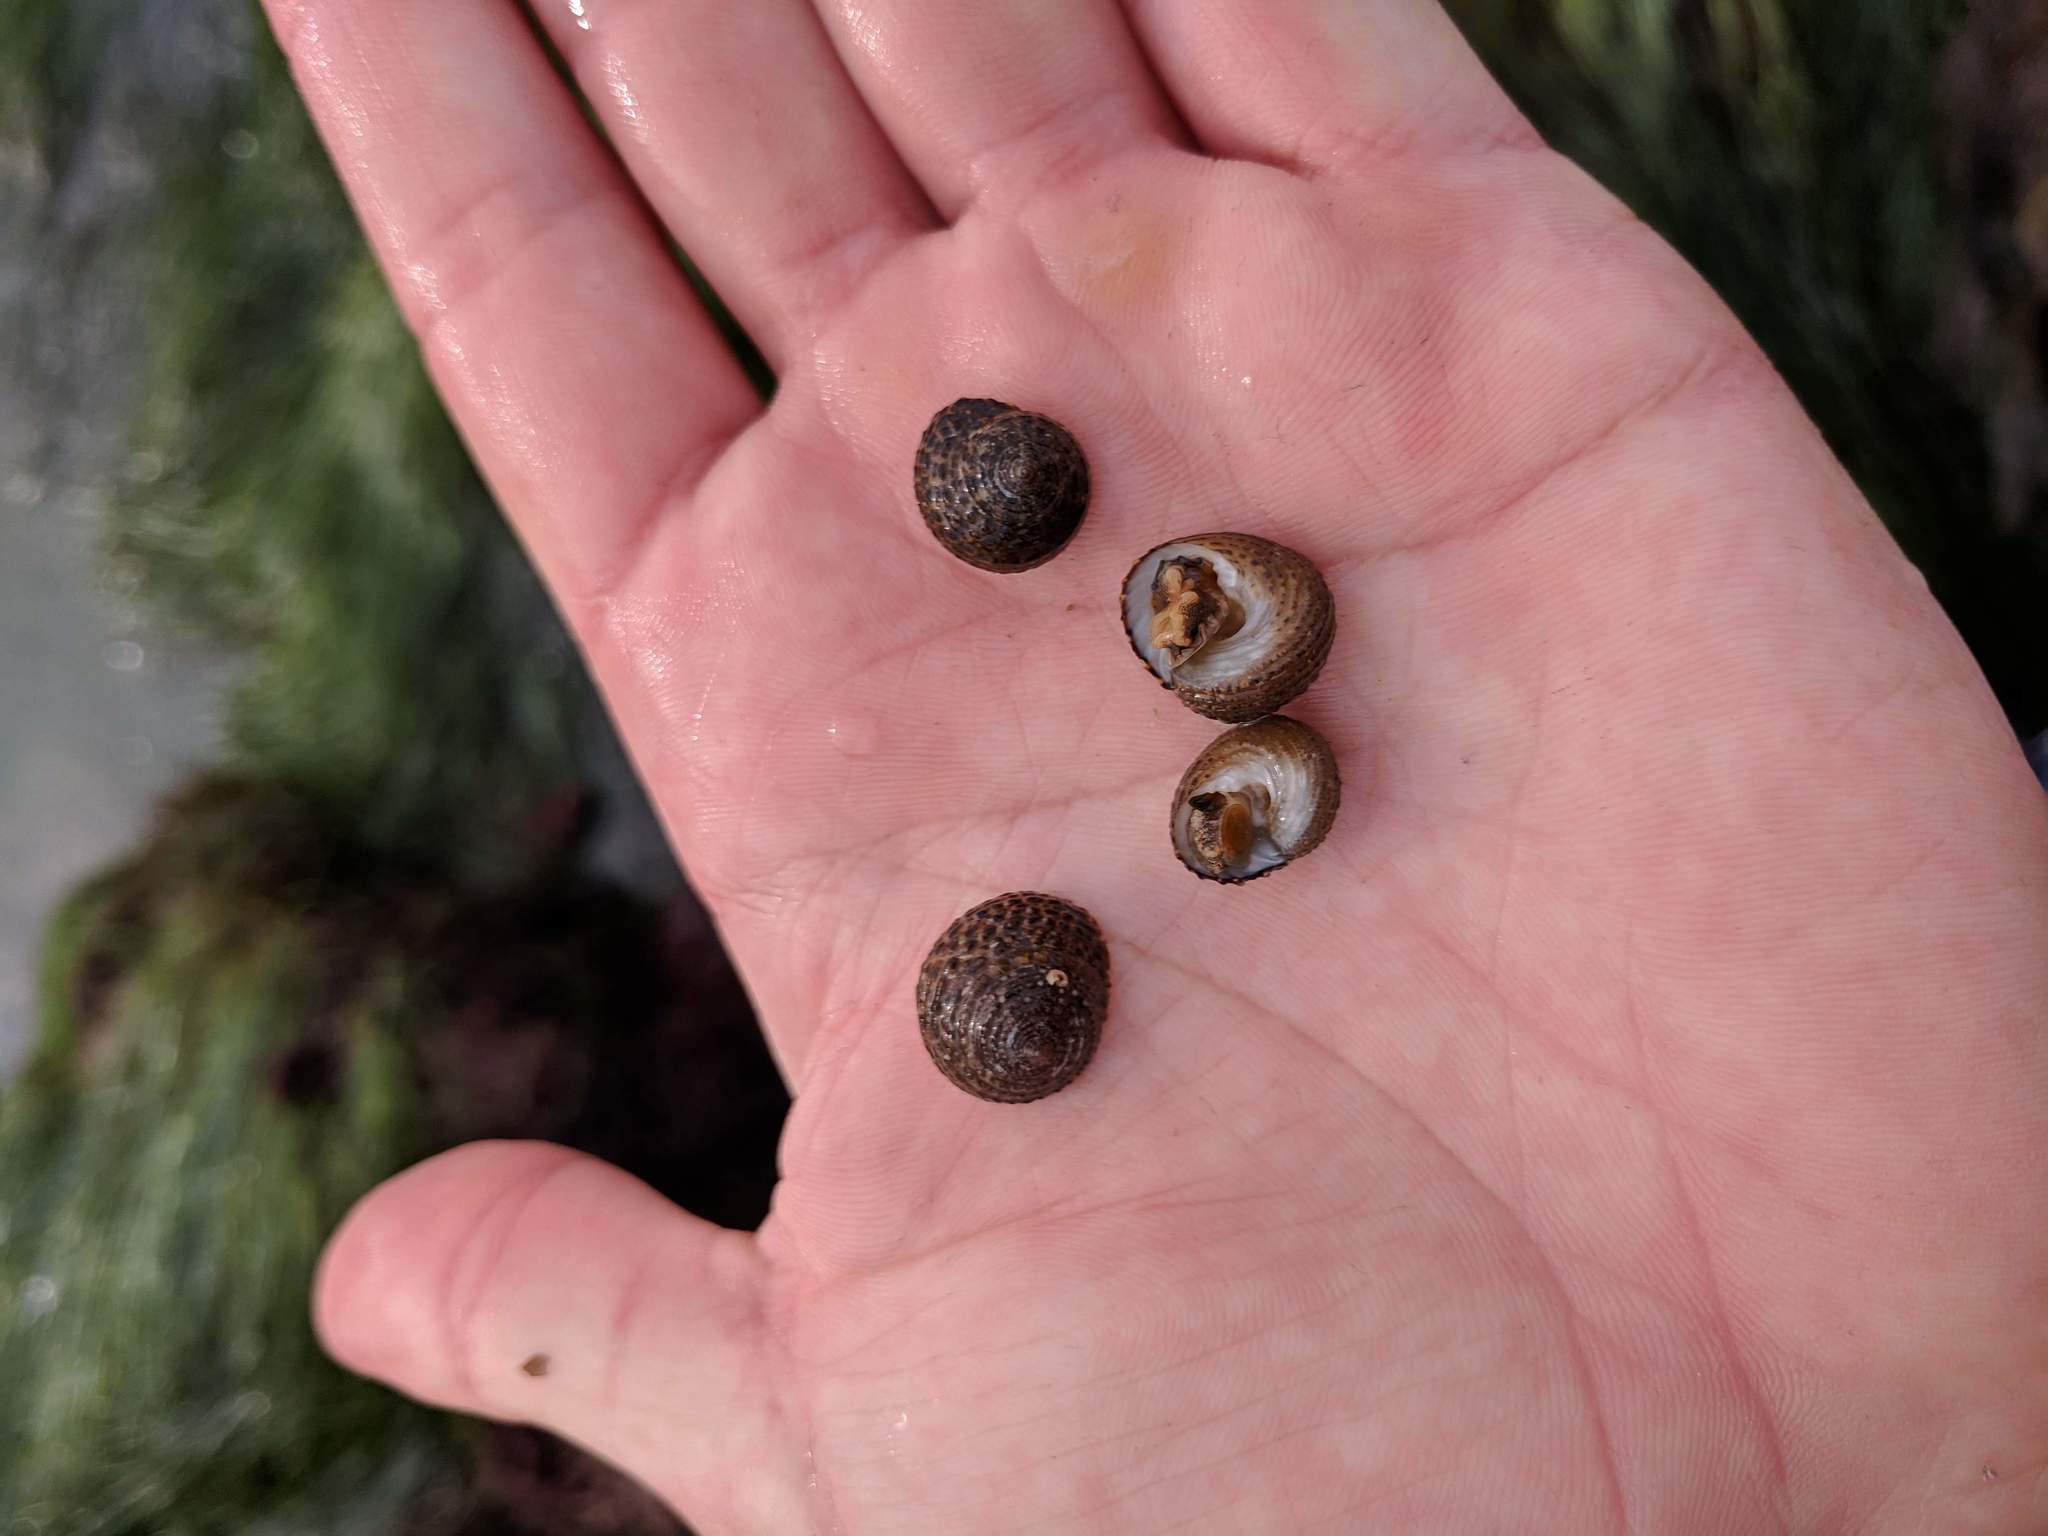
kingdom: Animalia
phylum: Mollusca
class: Gastropoda
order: Trochida
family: Tegulidae
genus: Tegula
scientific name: Tegula eiseni
